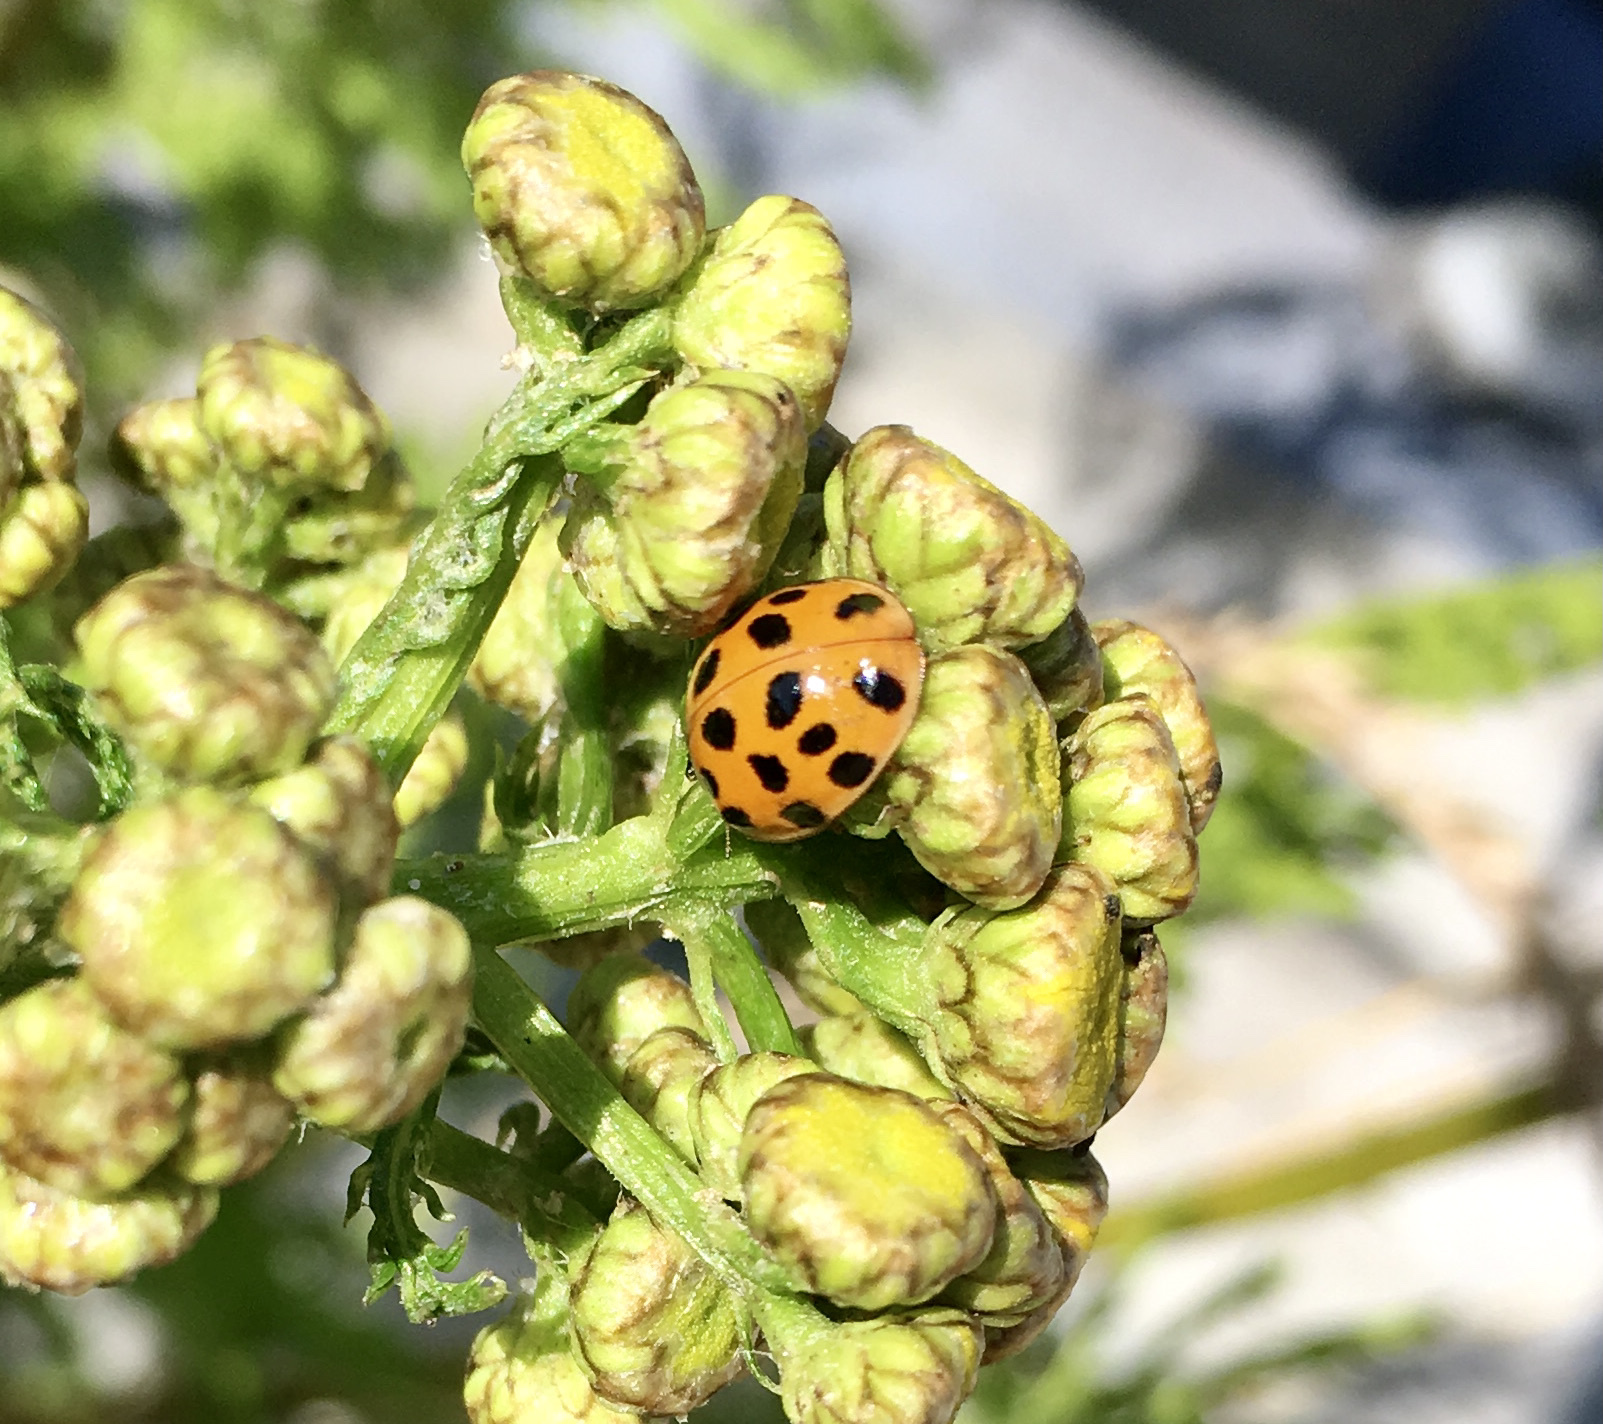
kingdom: Animalia
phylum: Arthropoda
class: Insecta
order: Coleoptera
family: Coccinellidae
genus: Harmonia
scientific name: Harmonia axyridis
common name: Harlequin ladybird
